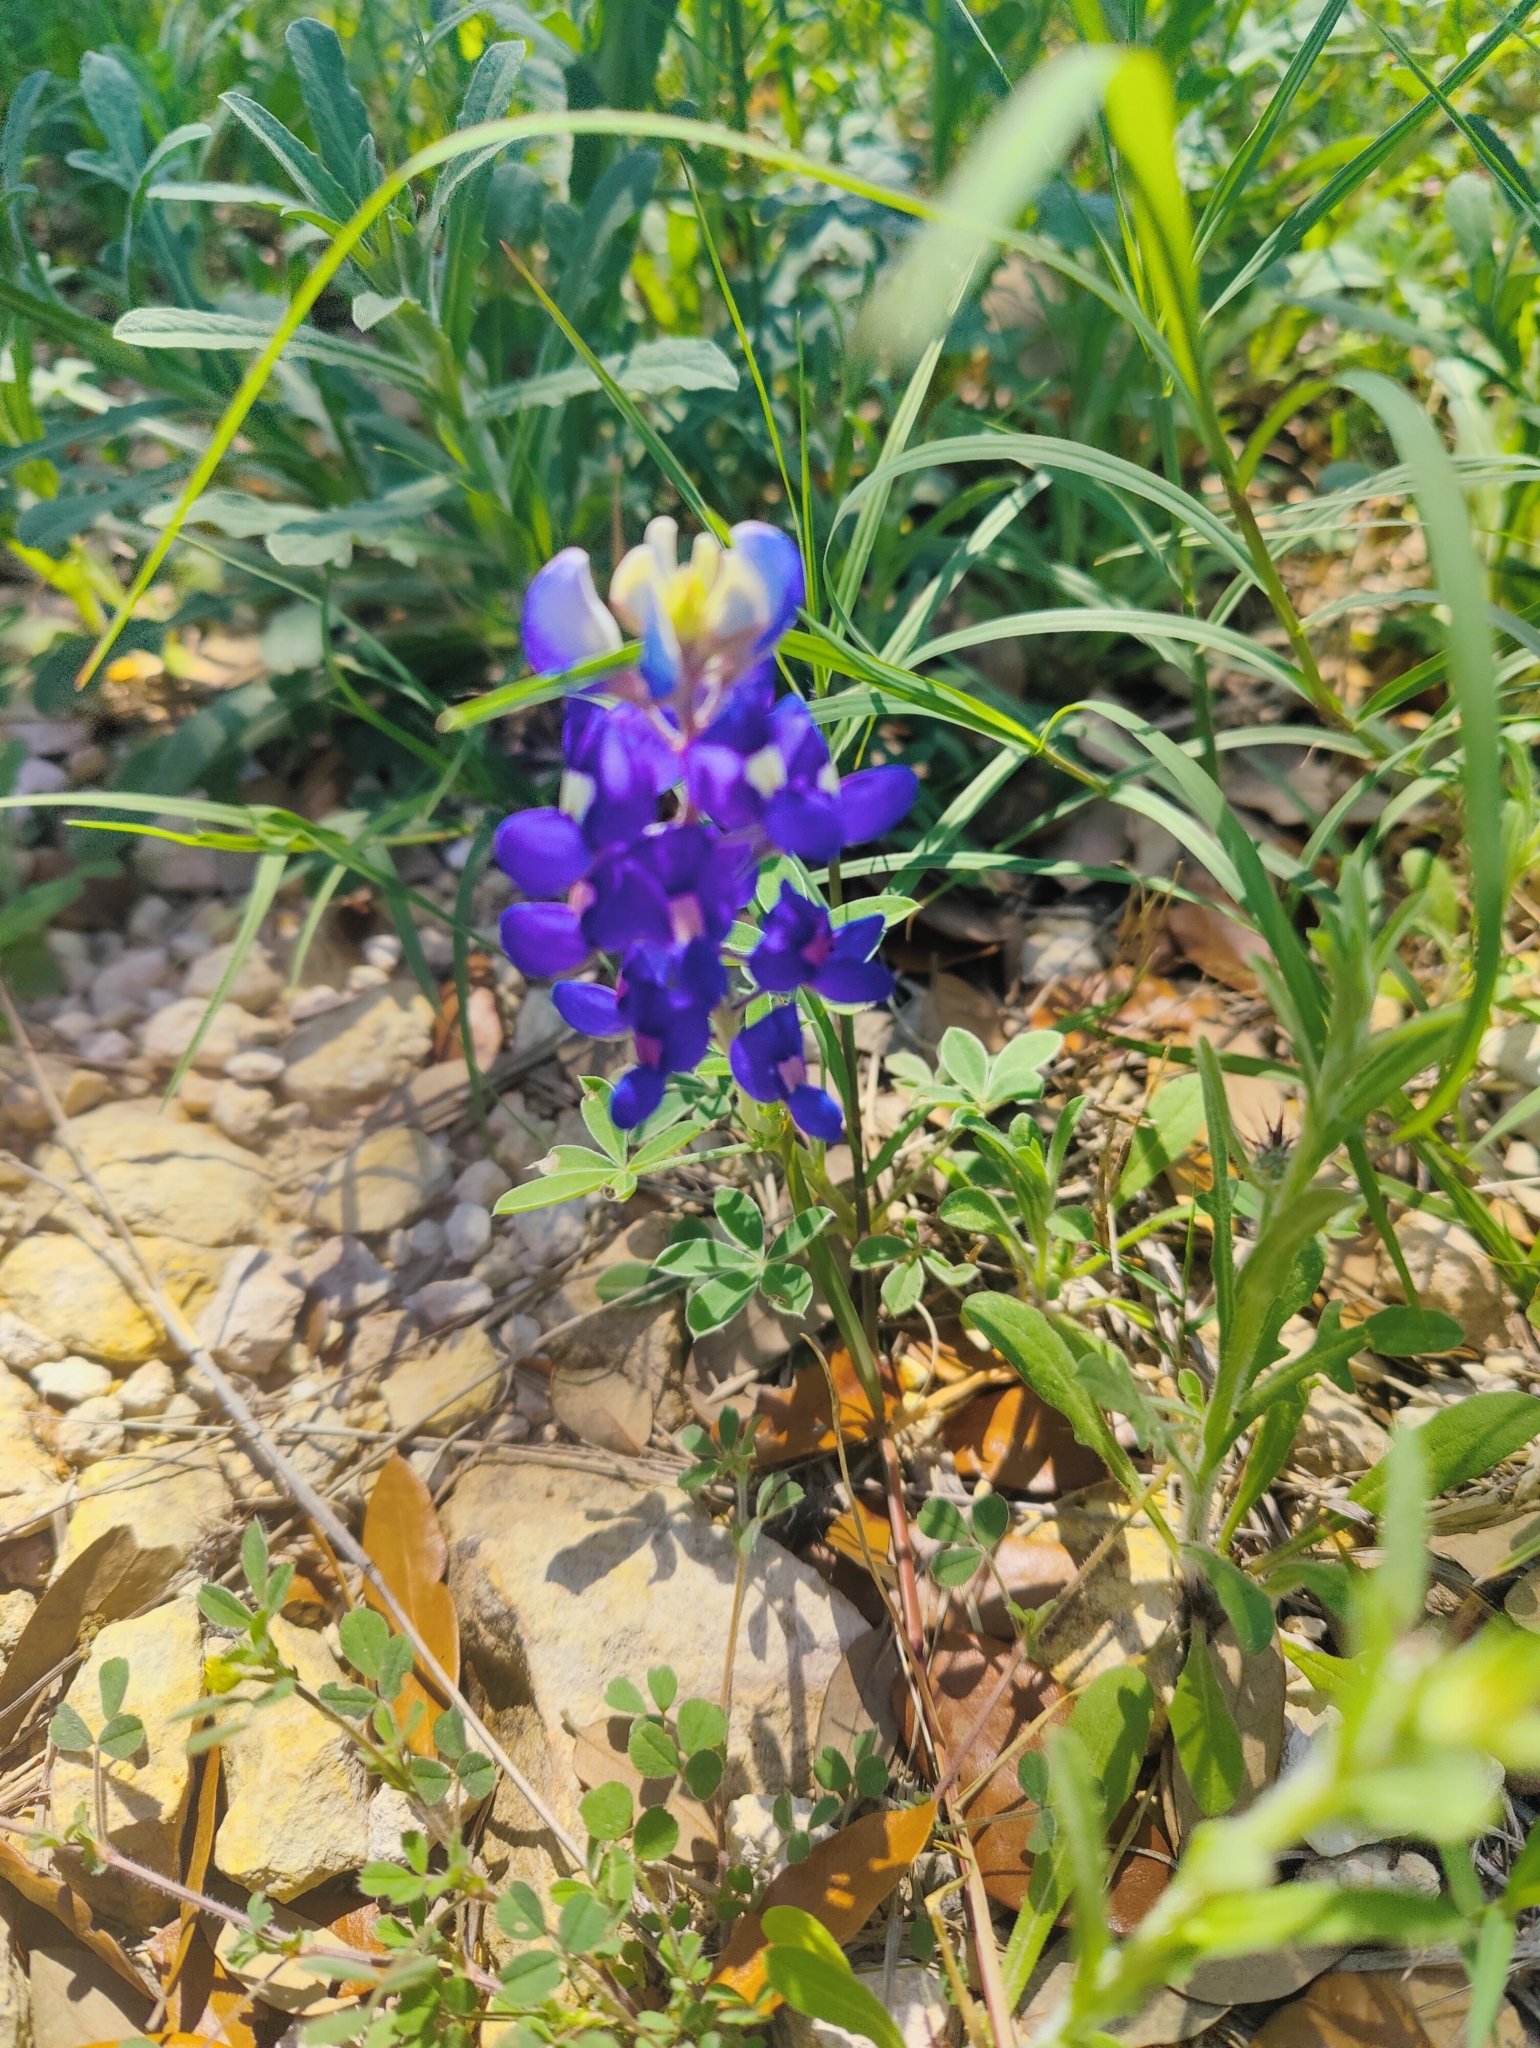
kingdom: Plantae
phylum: Tracheophyta
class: Magnoliopsida
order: Fabales
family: Fabaceae
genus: Lupinus
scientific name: Lupinus texensis
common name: Texas bluebonnet
